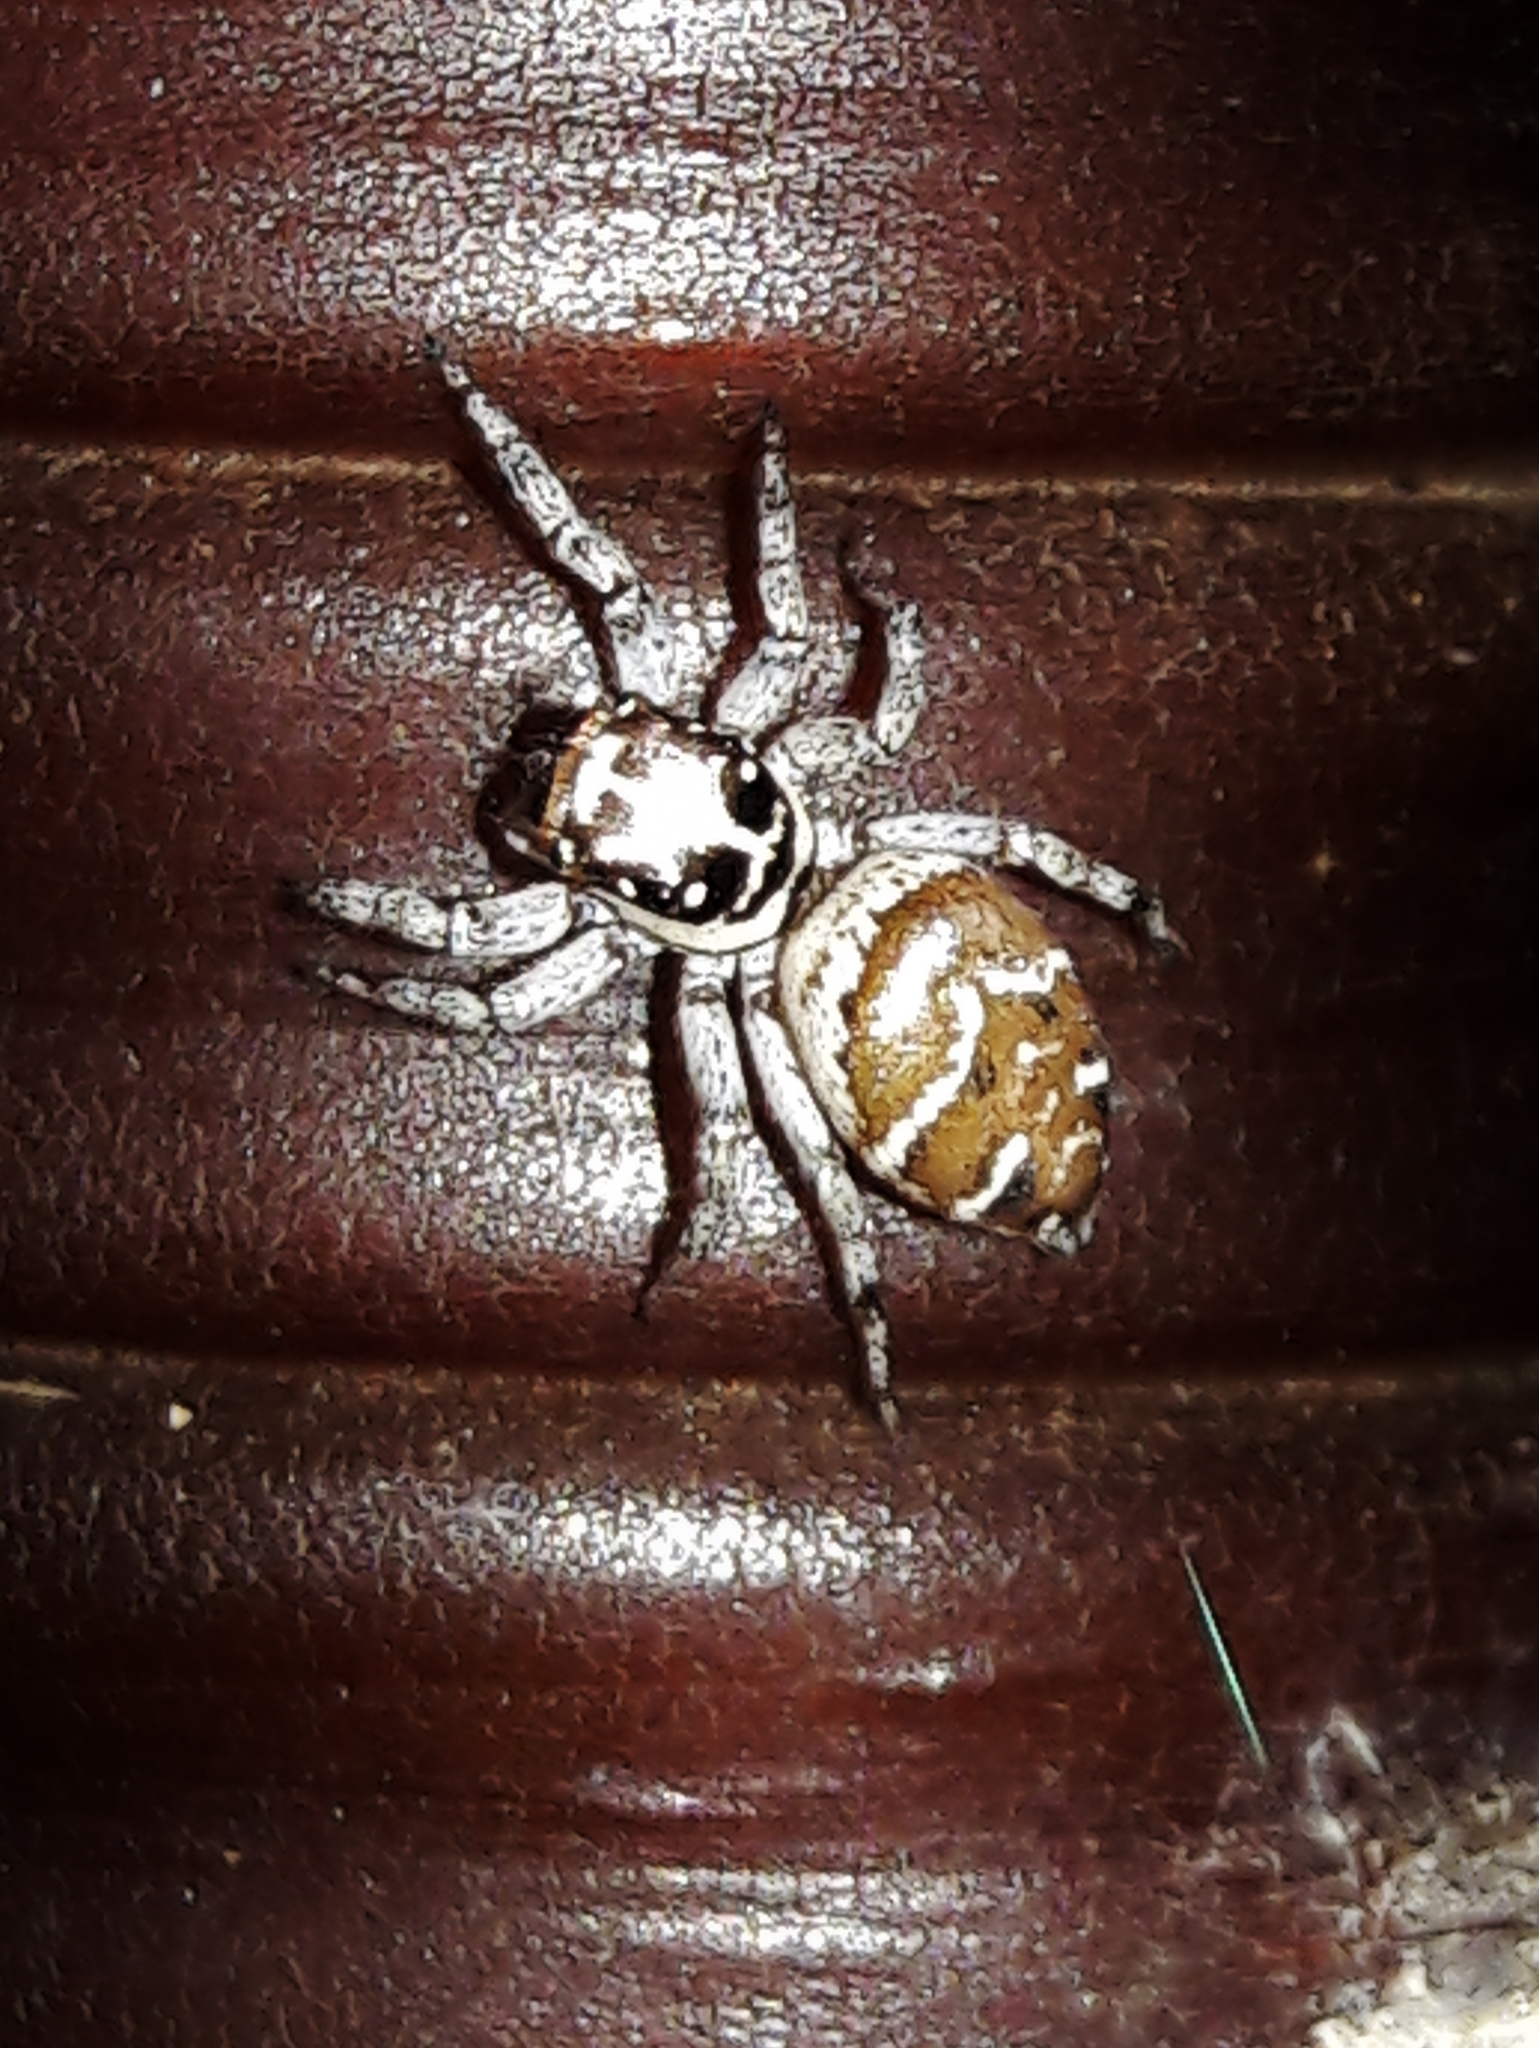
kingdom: Animalia
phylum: Arthropoda
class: Arachnida
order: Araneae
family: Salticidae
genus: Philira
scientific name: Philira micans
